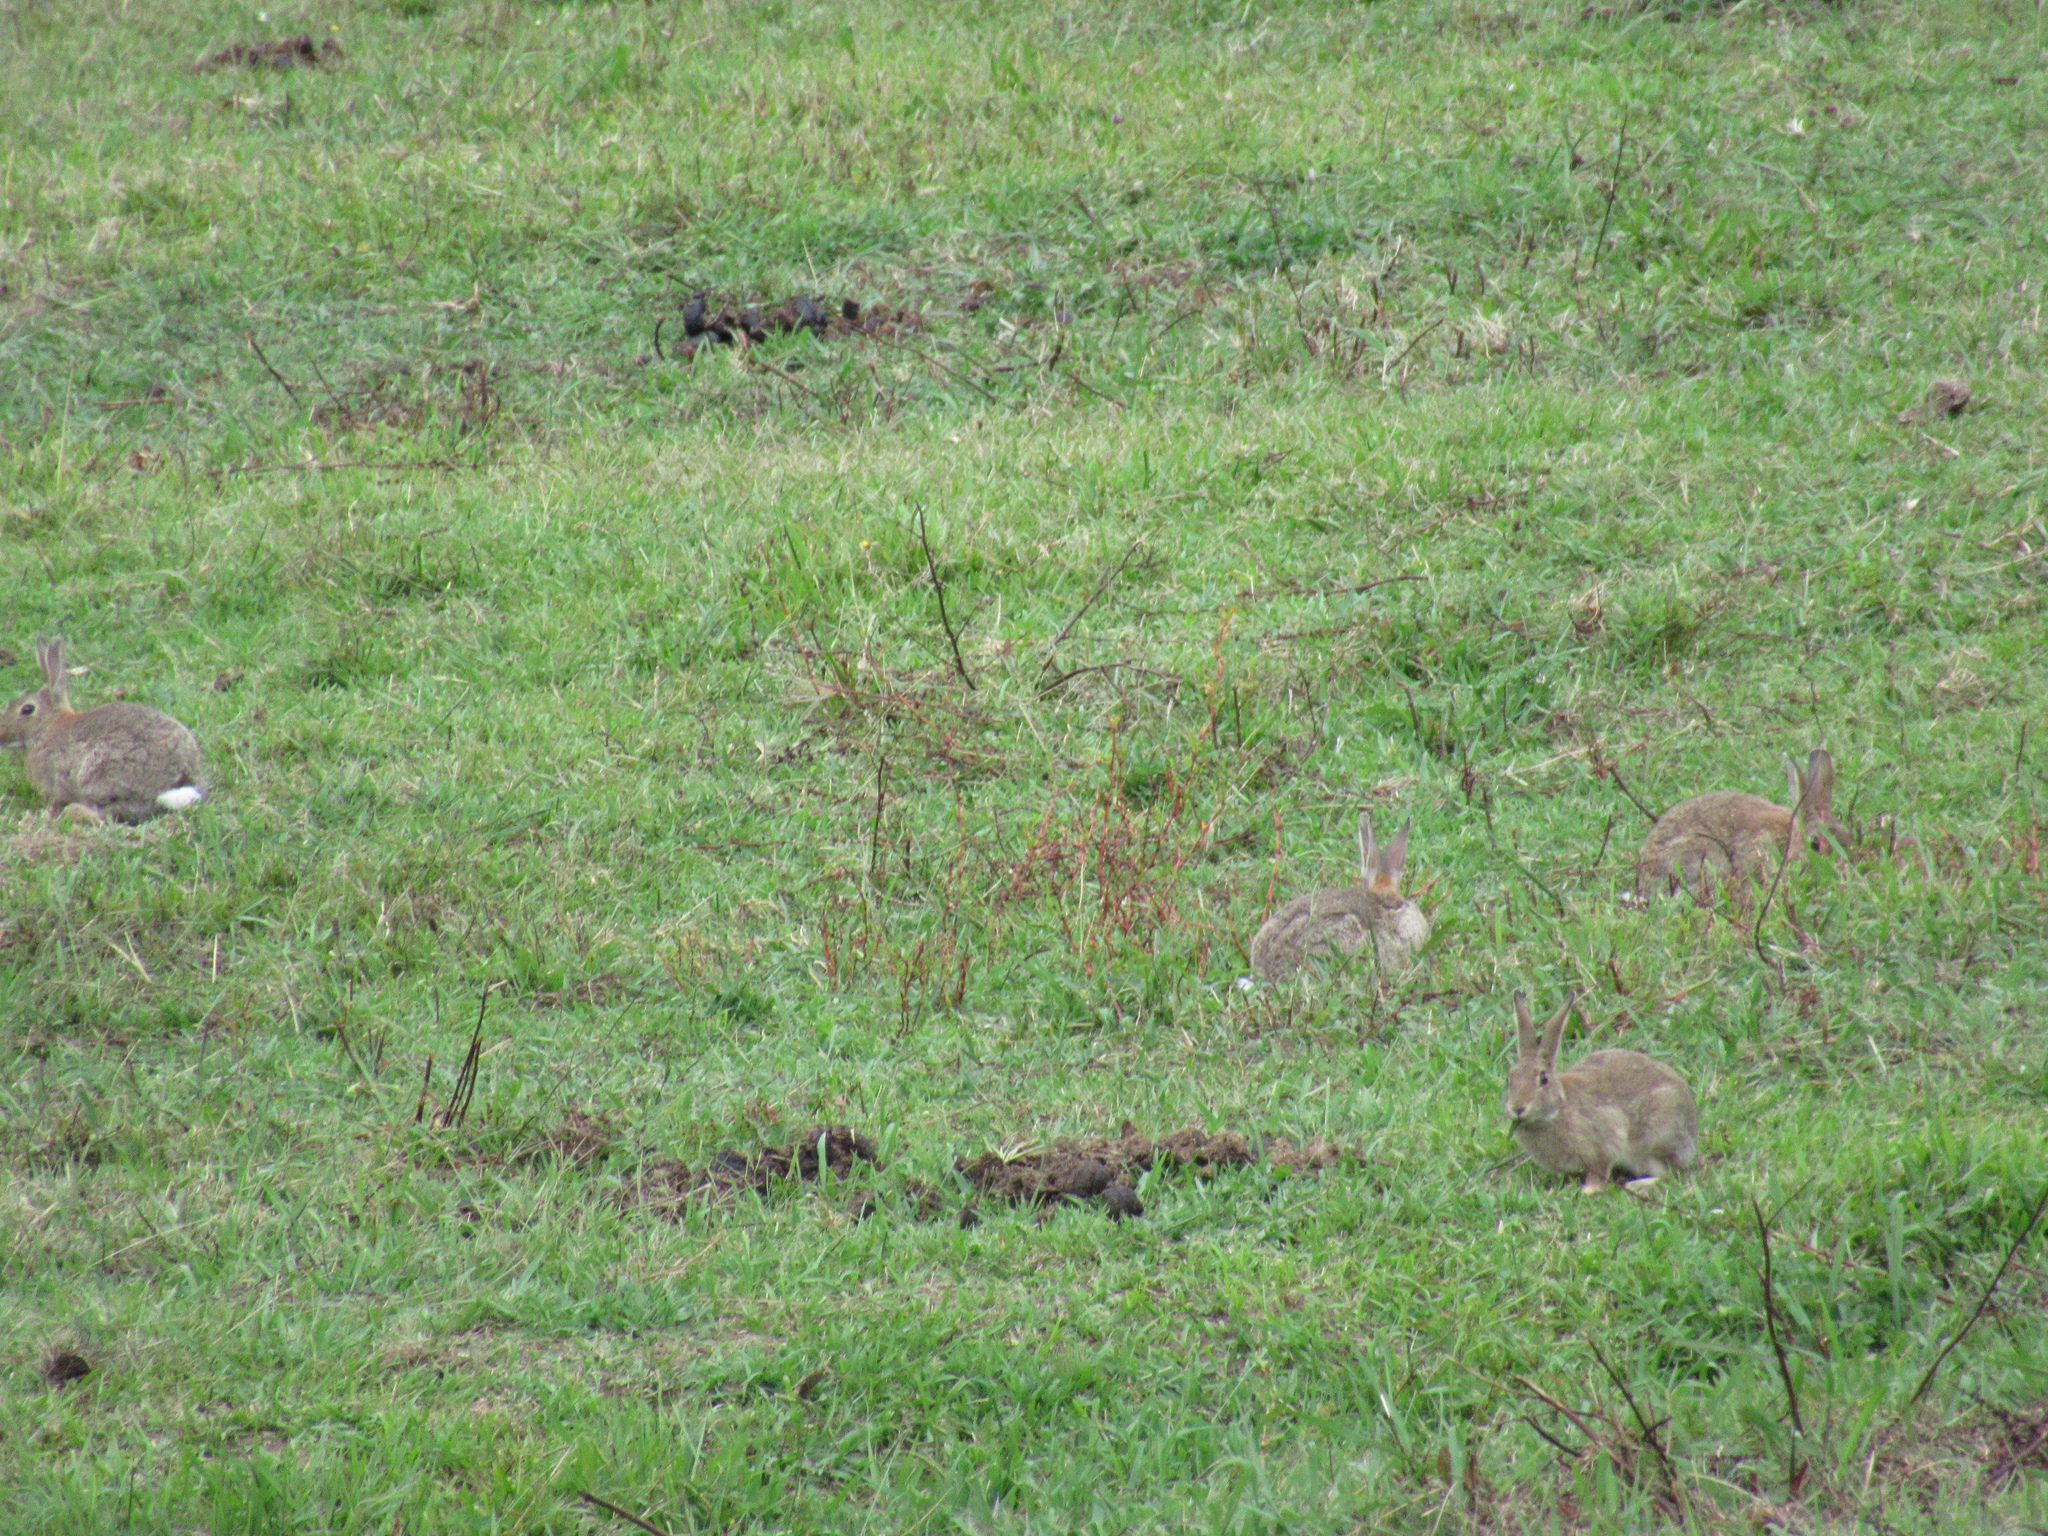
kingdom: Animalia
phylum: Chordata
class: Mammalia
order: Lagomorpha
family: Leporidae
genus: Oryctolagus
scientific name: Oryctolagus cuniculus
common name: European rabbit
